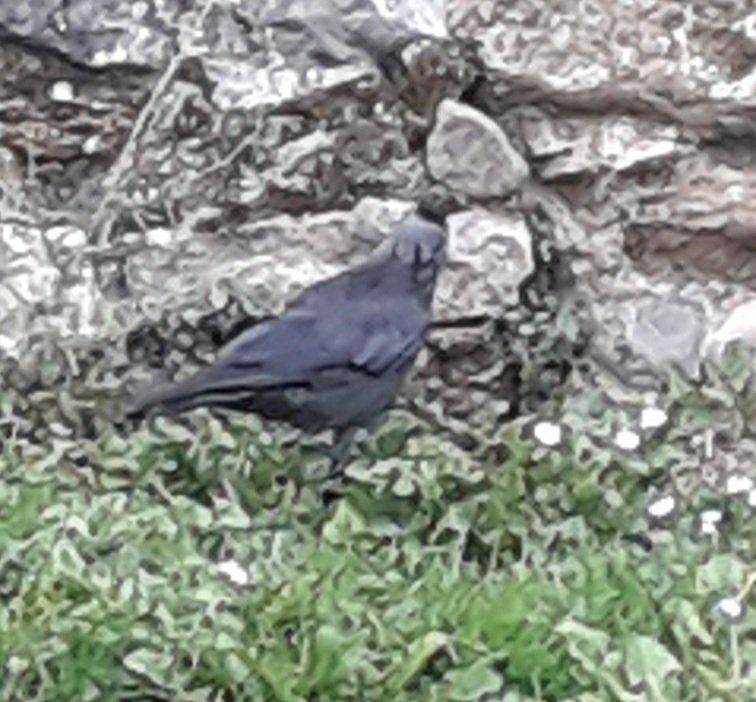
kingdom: Animalia
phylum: Chordata
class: Aves
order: Passeriformes
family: Corvidae
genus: Coloeus
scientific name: Coloeus monedula
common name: Western jackdaw
